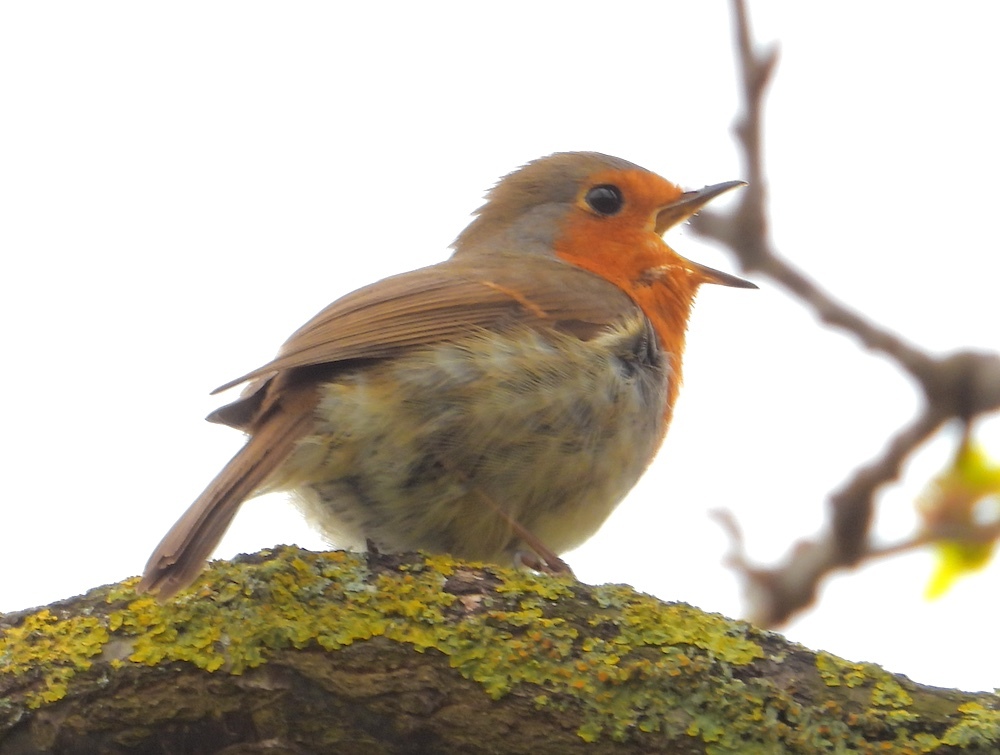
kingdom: Animalia
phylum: Chordata
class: Aves
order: Passeriformes
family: Muscicapidae
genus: Erithacus
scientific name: Erithacus rubecula
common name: European robin
